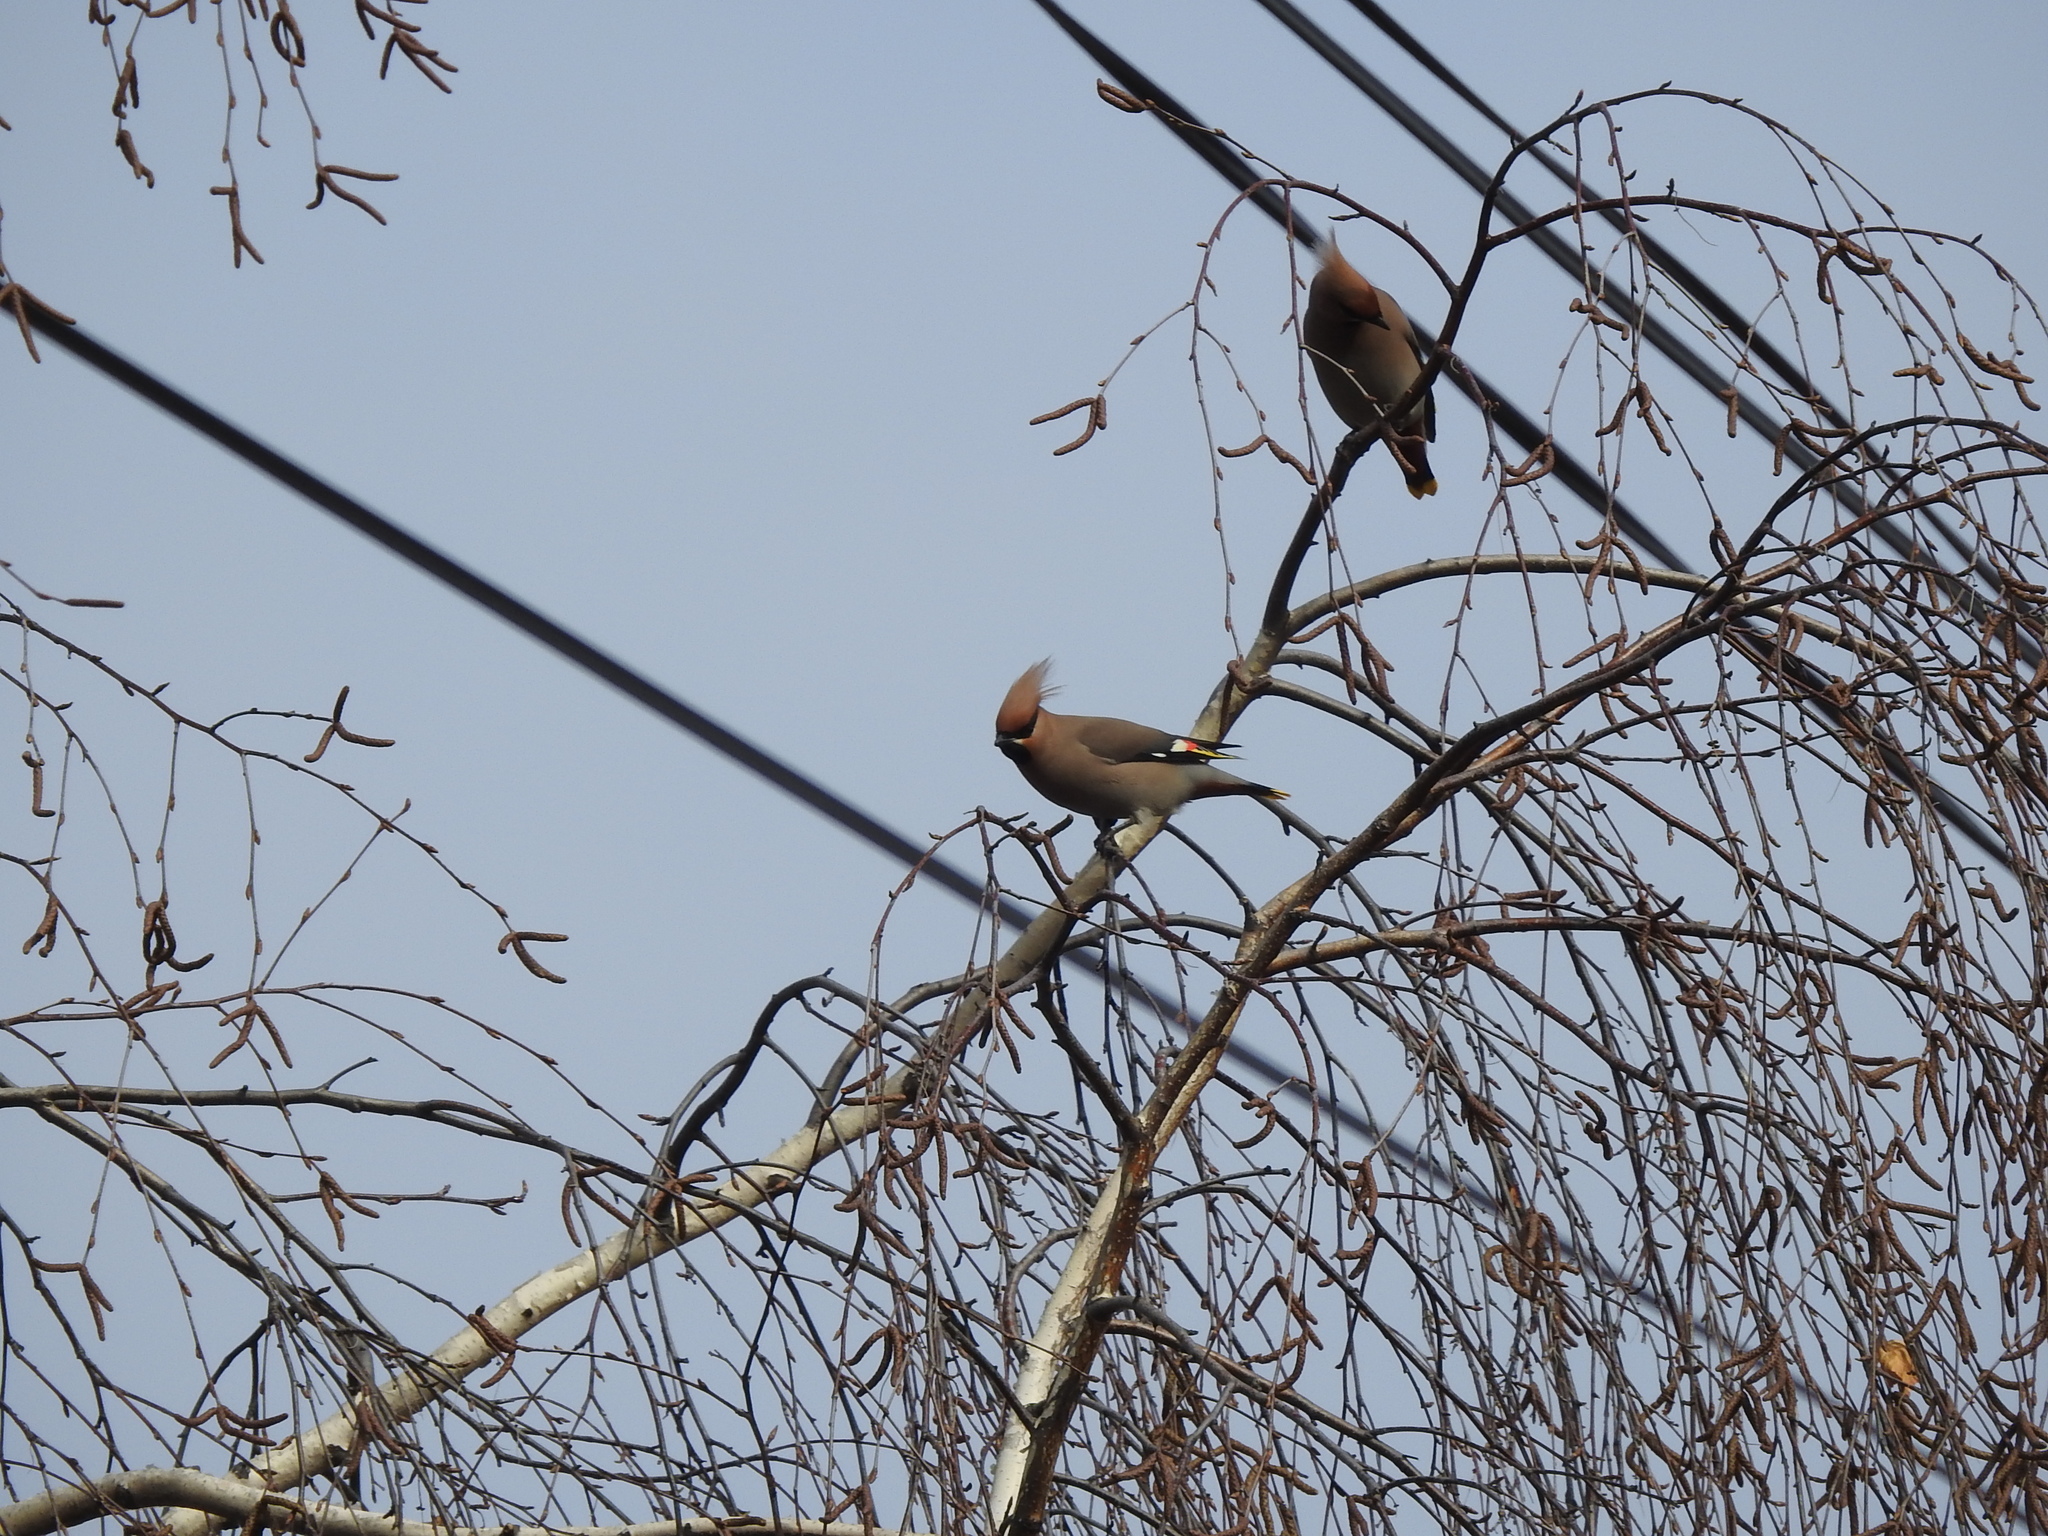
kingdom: Animalia
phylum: Chordata
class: Aves
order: Passeriformes
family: Bombycillidae
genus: Bombycilla
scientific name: Bombycilla garrulus
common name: Bohemian waxwing
